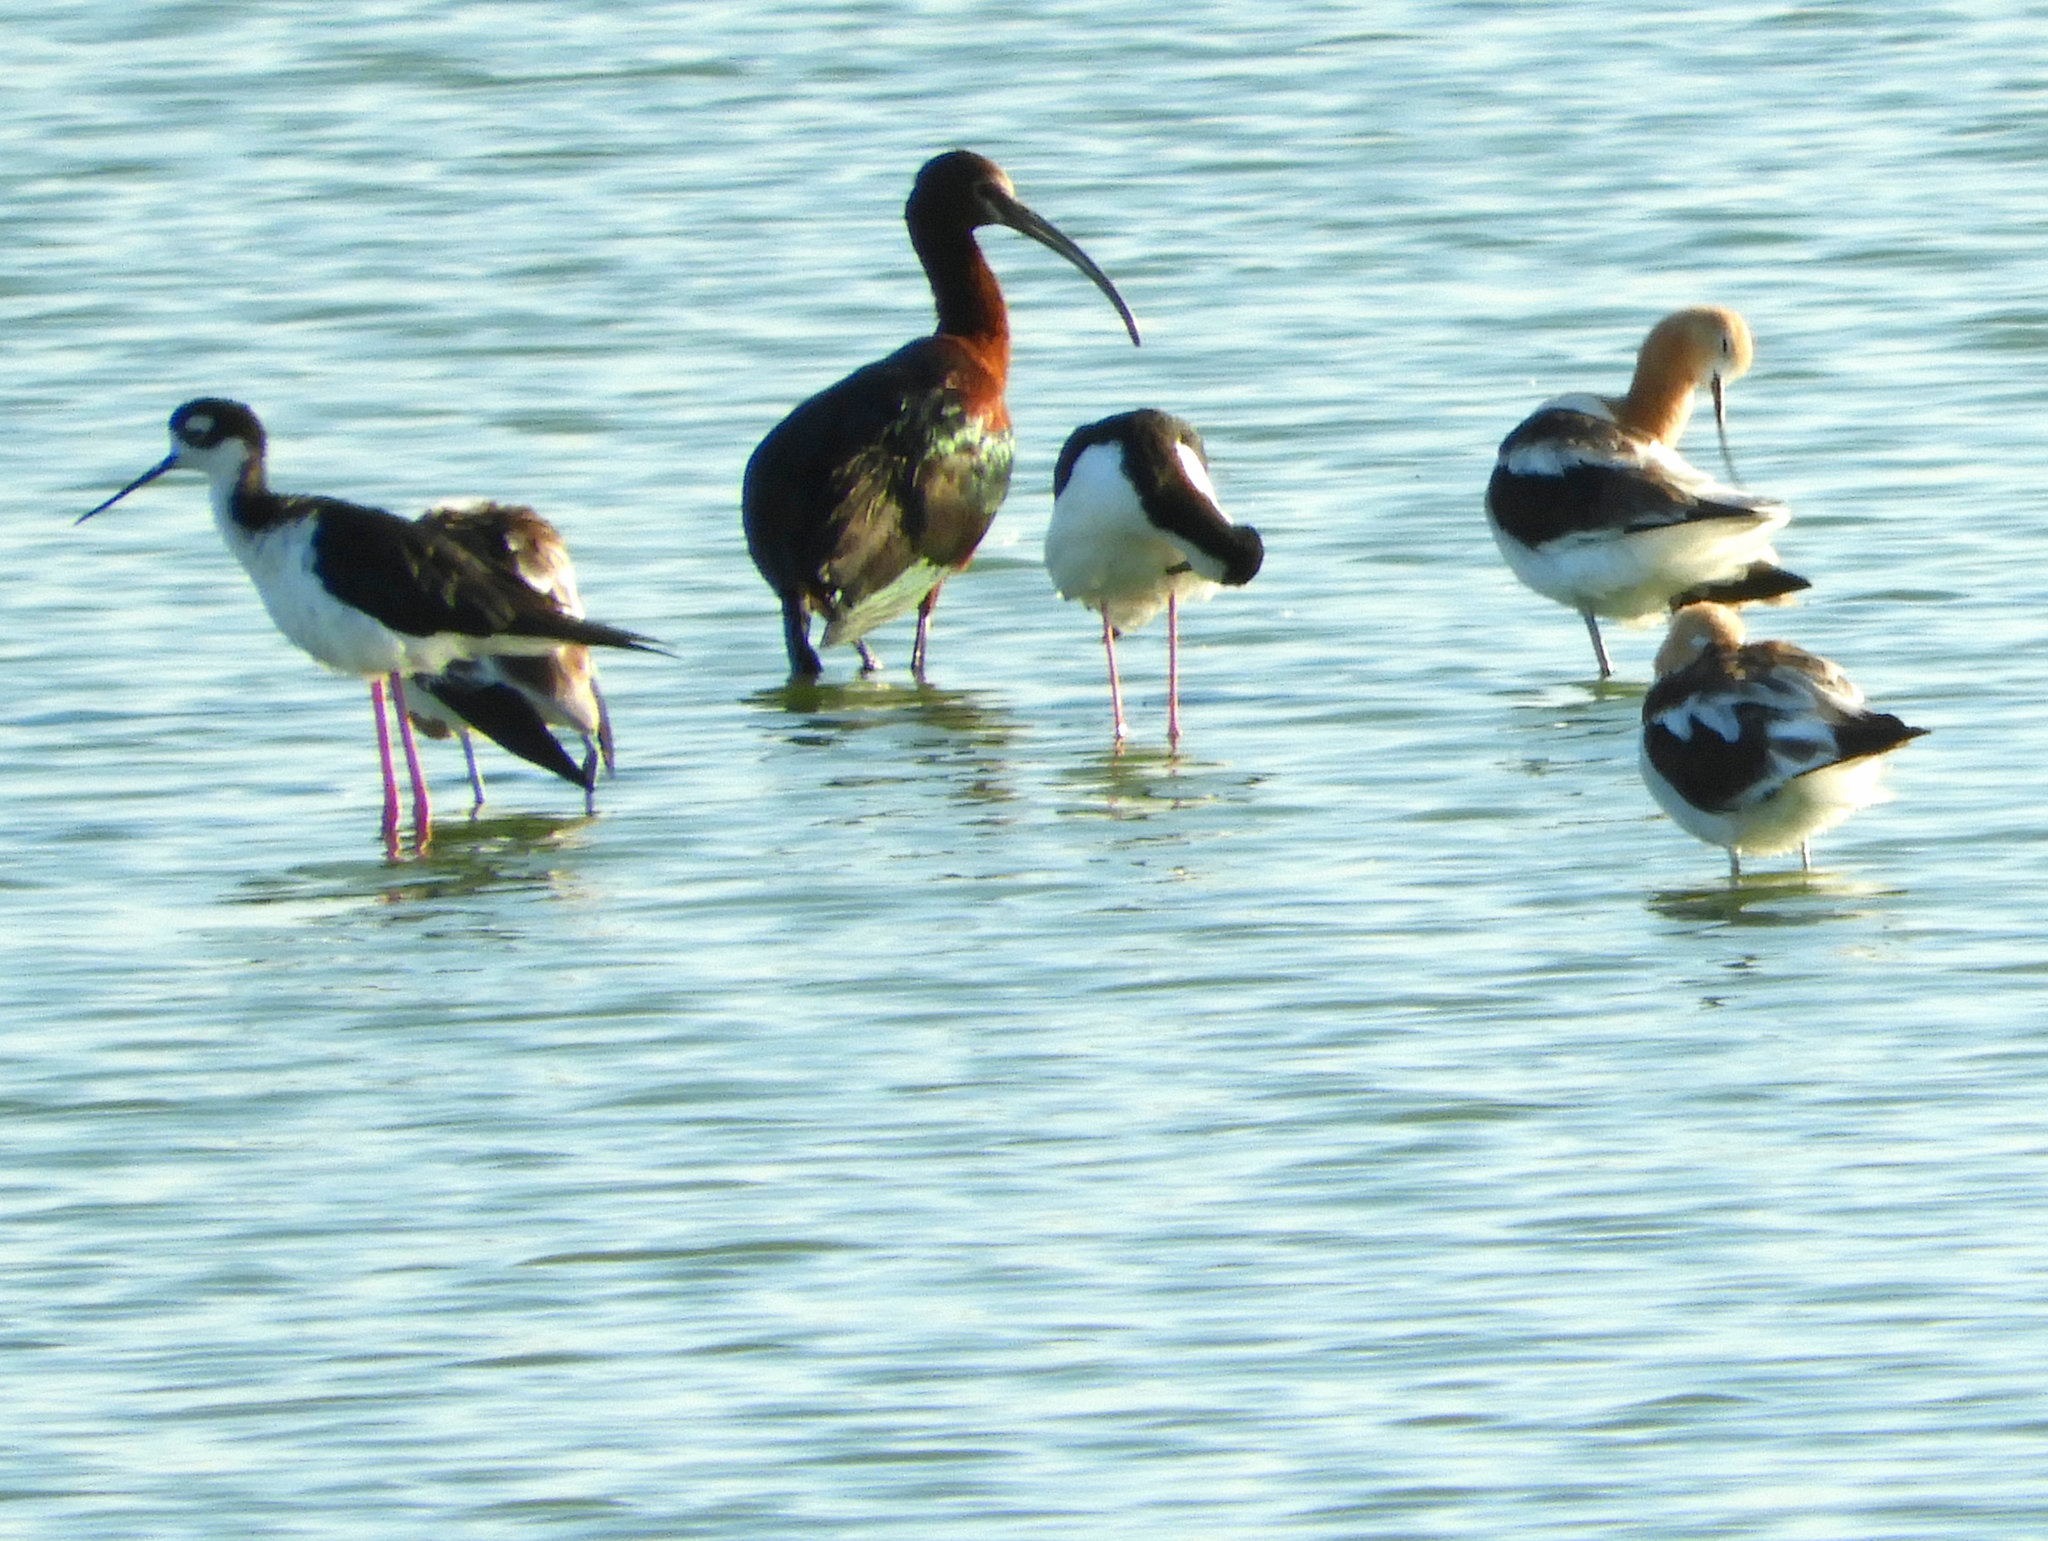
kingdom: Animalia
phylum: Chordata
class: Aves
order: Pelecaniformes
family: Threskiornithidae
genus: Plegadis
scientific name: Plegadis chihi
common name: White-faced ibis
